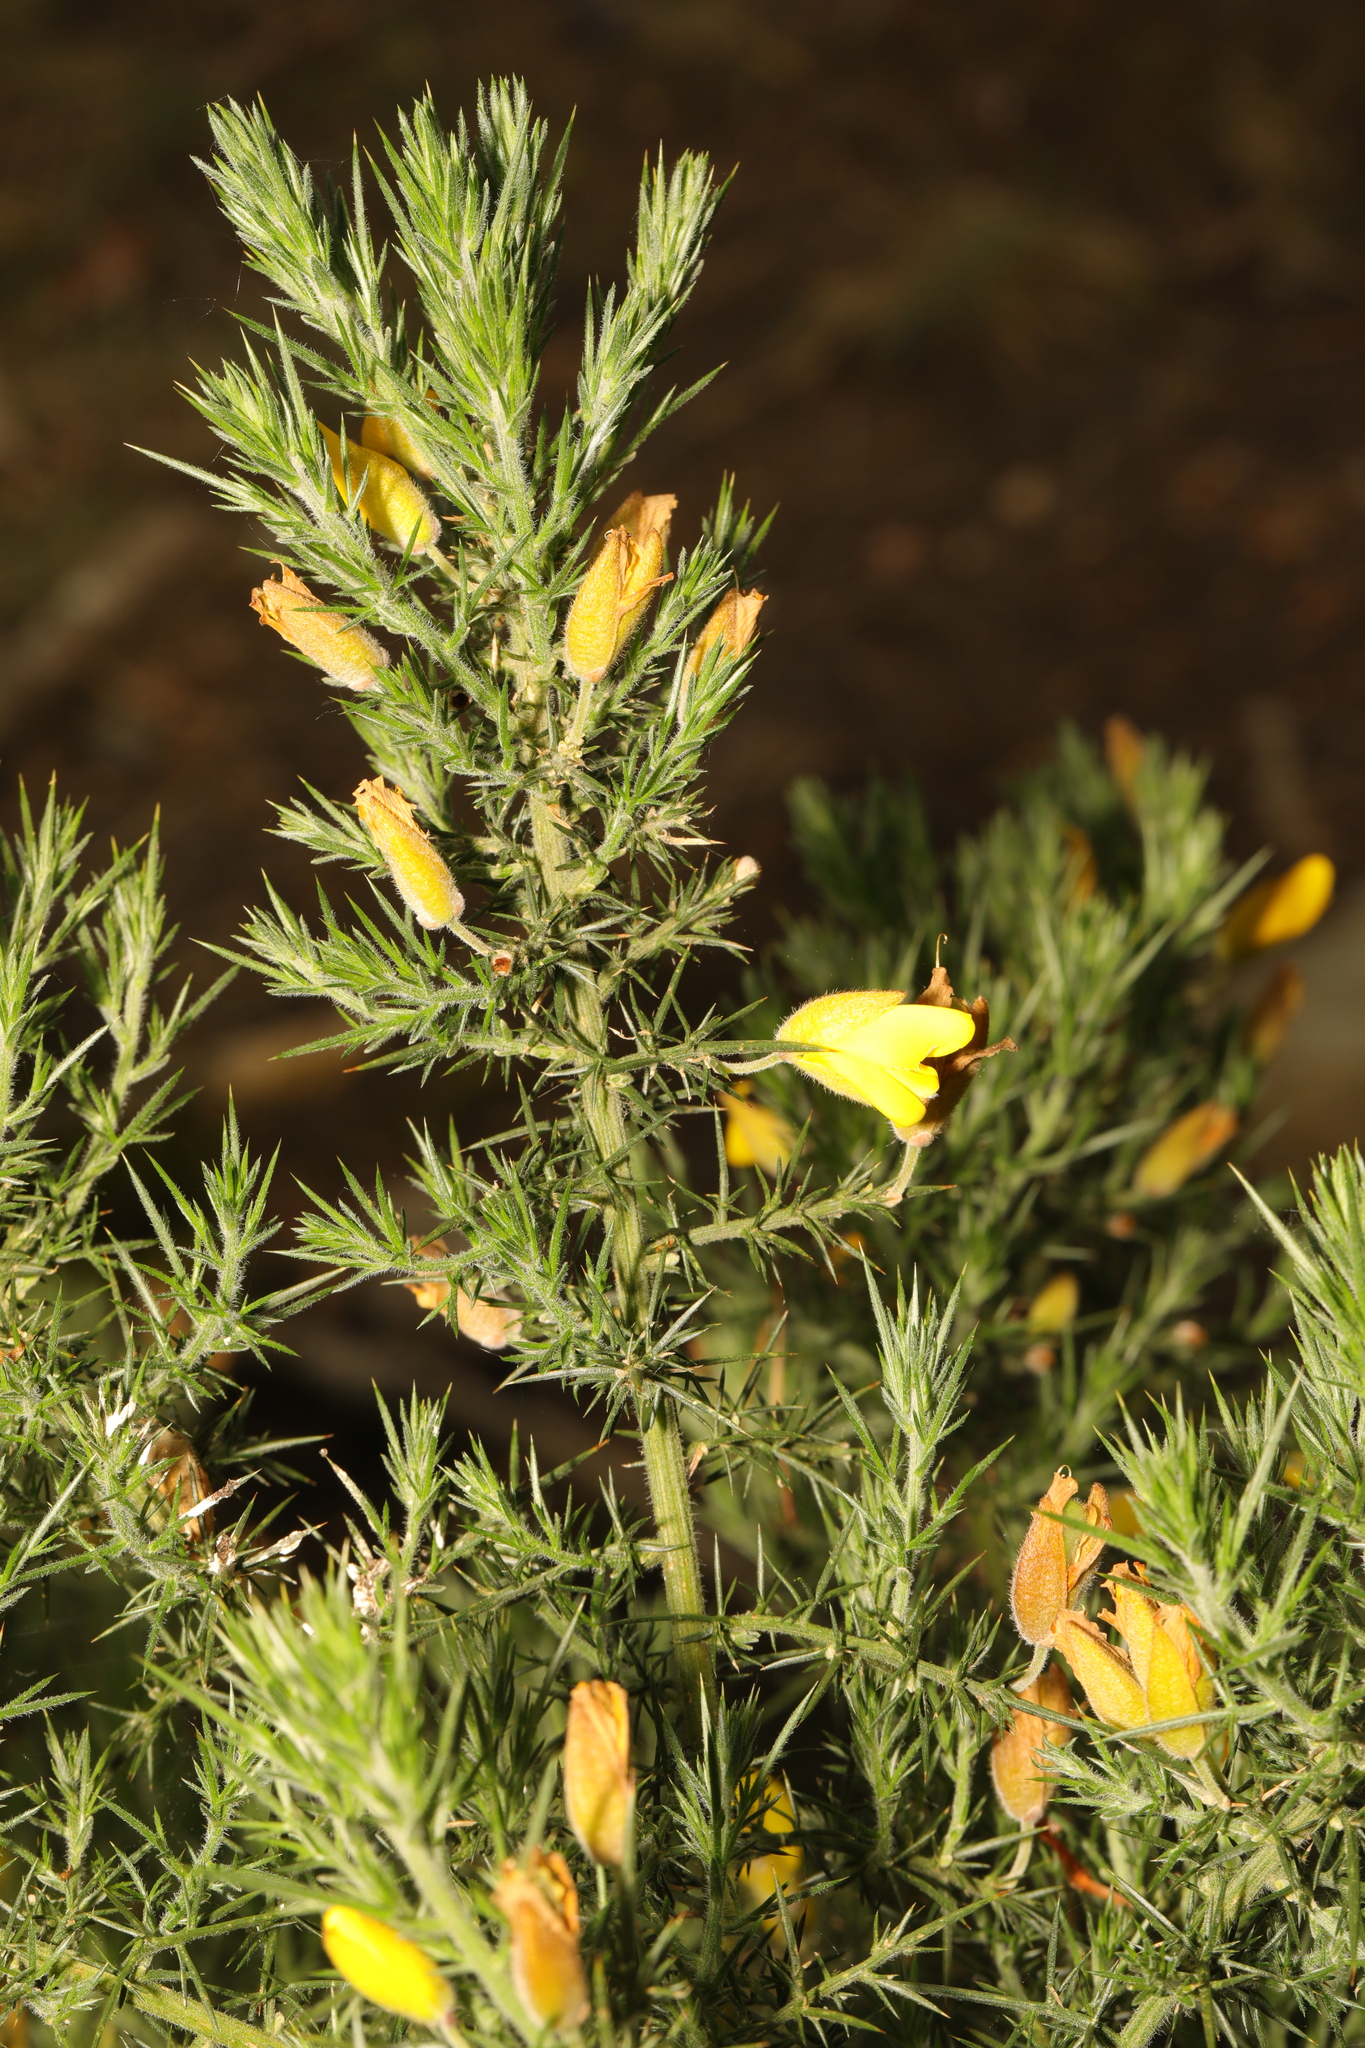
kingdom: Plantae
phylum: Tracheophyta
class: Magnoliopsida
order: Fabales
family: Fabaceae
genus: Ulex
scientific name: Ulex europaeus
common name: Common gorse
